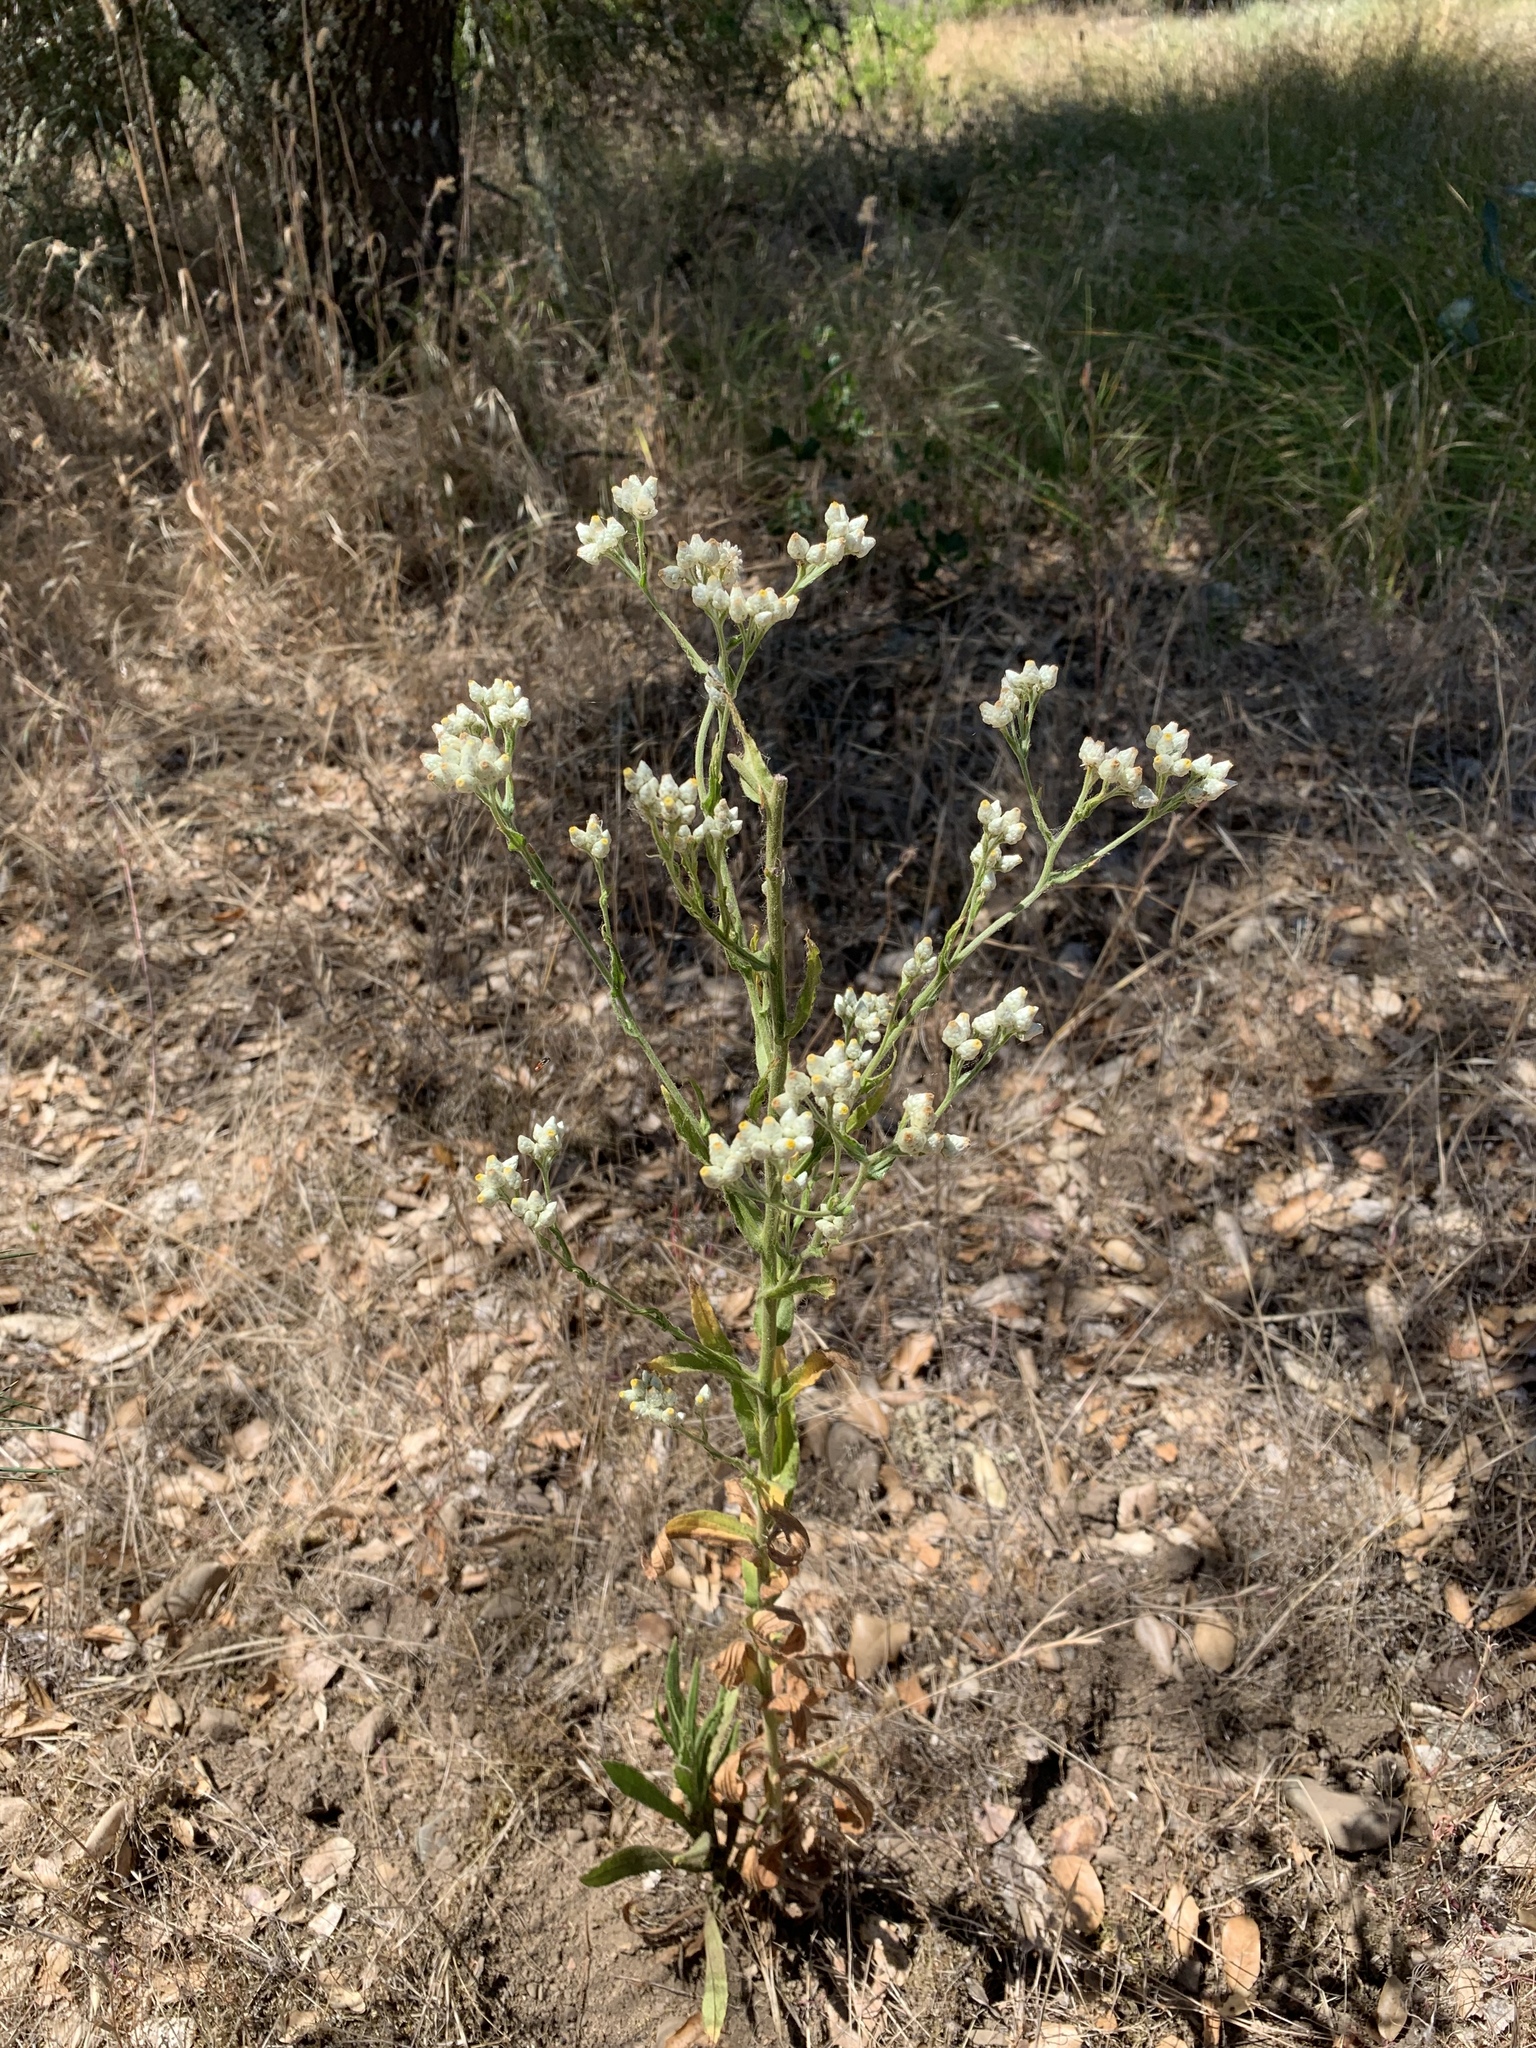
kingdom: Plantae
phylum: Tracheophyta
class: Magnoliopsida
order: Asterales
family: Asteraceae
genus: Pseudognaphalium
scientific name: Pseudognaphalium californicum
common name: California rabbit-tobacco
